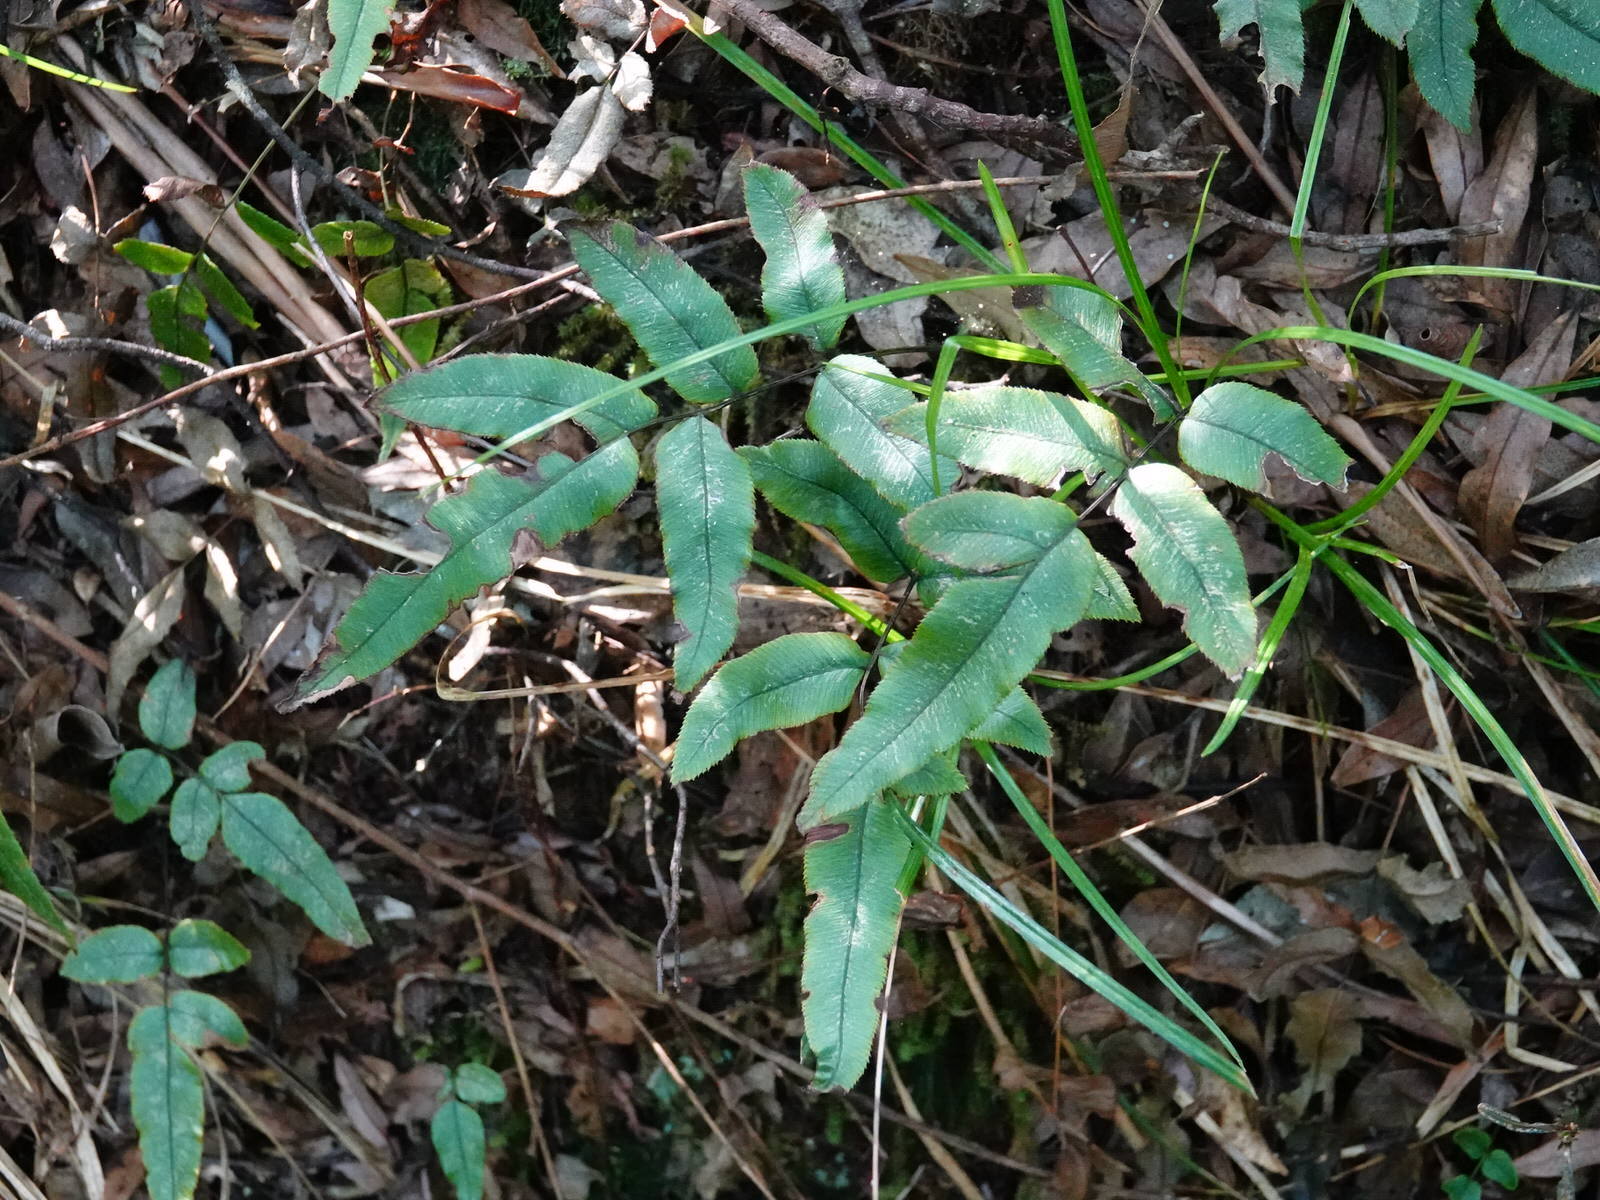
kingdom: Plantae
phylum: Tracheophyta
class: Polypodiopsida
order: Polypodiales
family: Blechnaceae
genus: Parablechnum
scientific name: Parablechnum procerum
